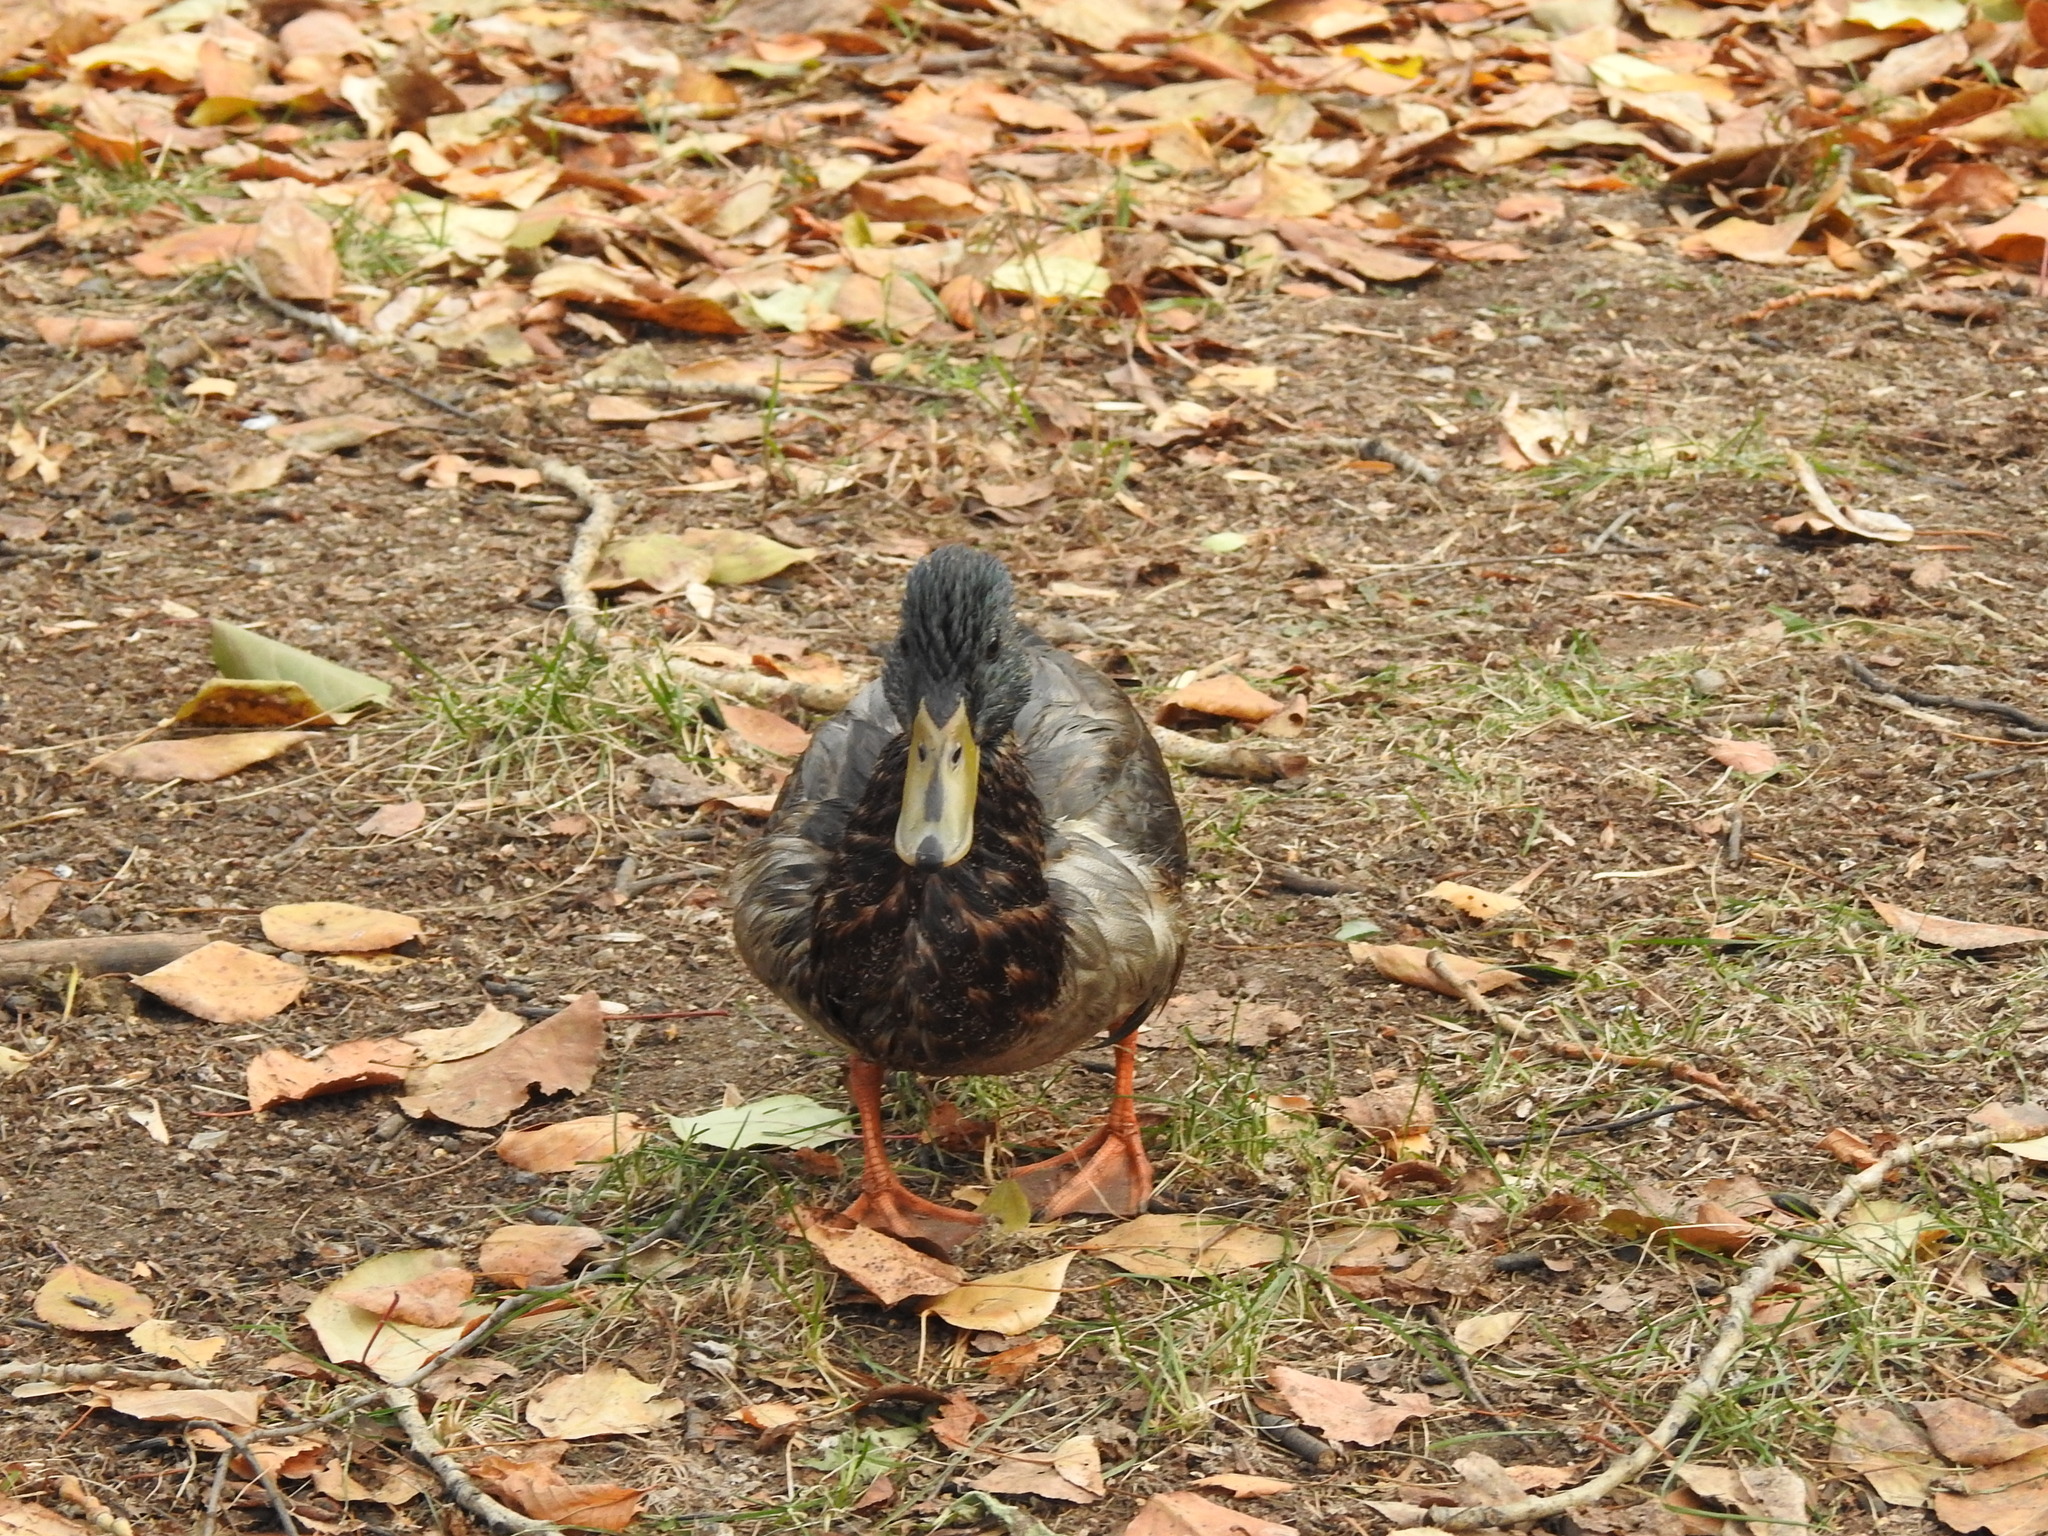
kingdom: Animalia
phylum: Chordata
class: Aves
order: Anseriformes
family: Anatidae
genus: Anas
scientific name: Anas platyrhynchos
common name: Mallard
